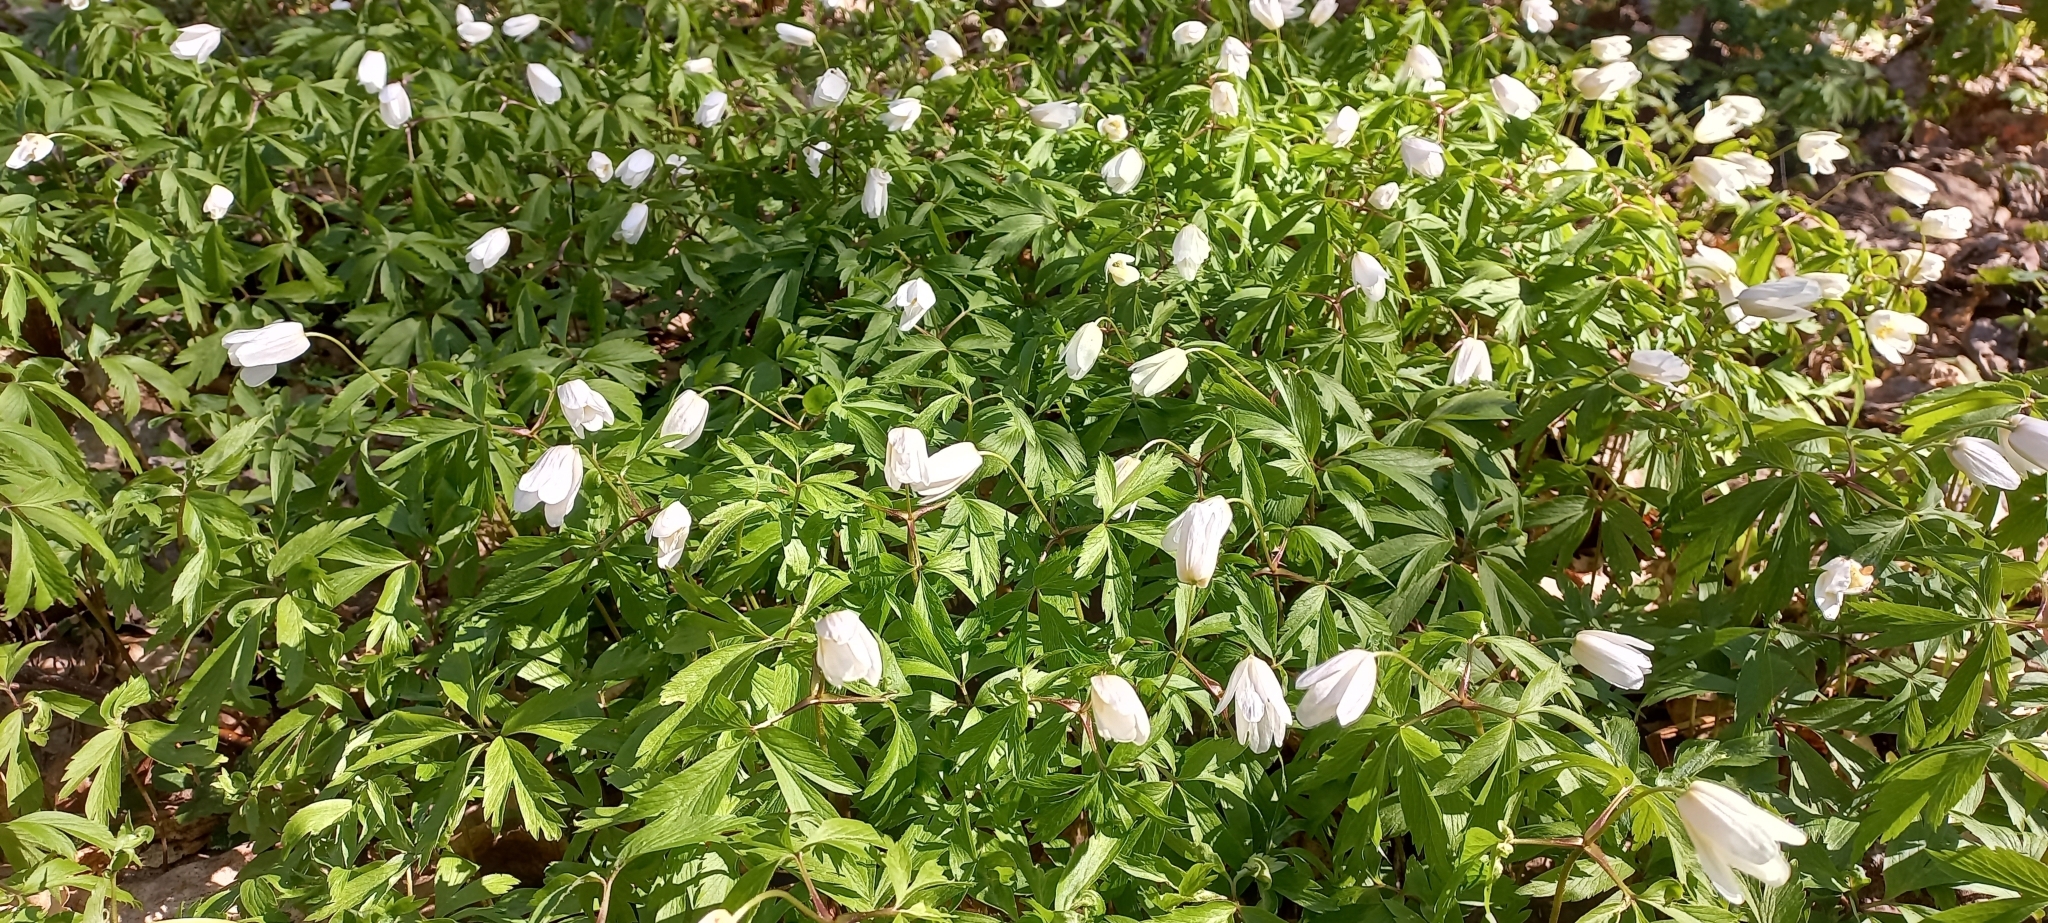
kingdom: Plantae
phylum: Tracheophyta
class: Magnoliopsida
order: Ranunculales
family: Ranunculaceae
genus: Anemone
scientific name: Anemone nemorosa
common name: Wood anemone
